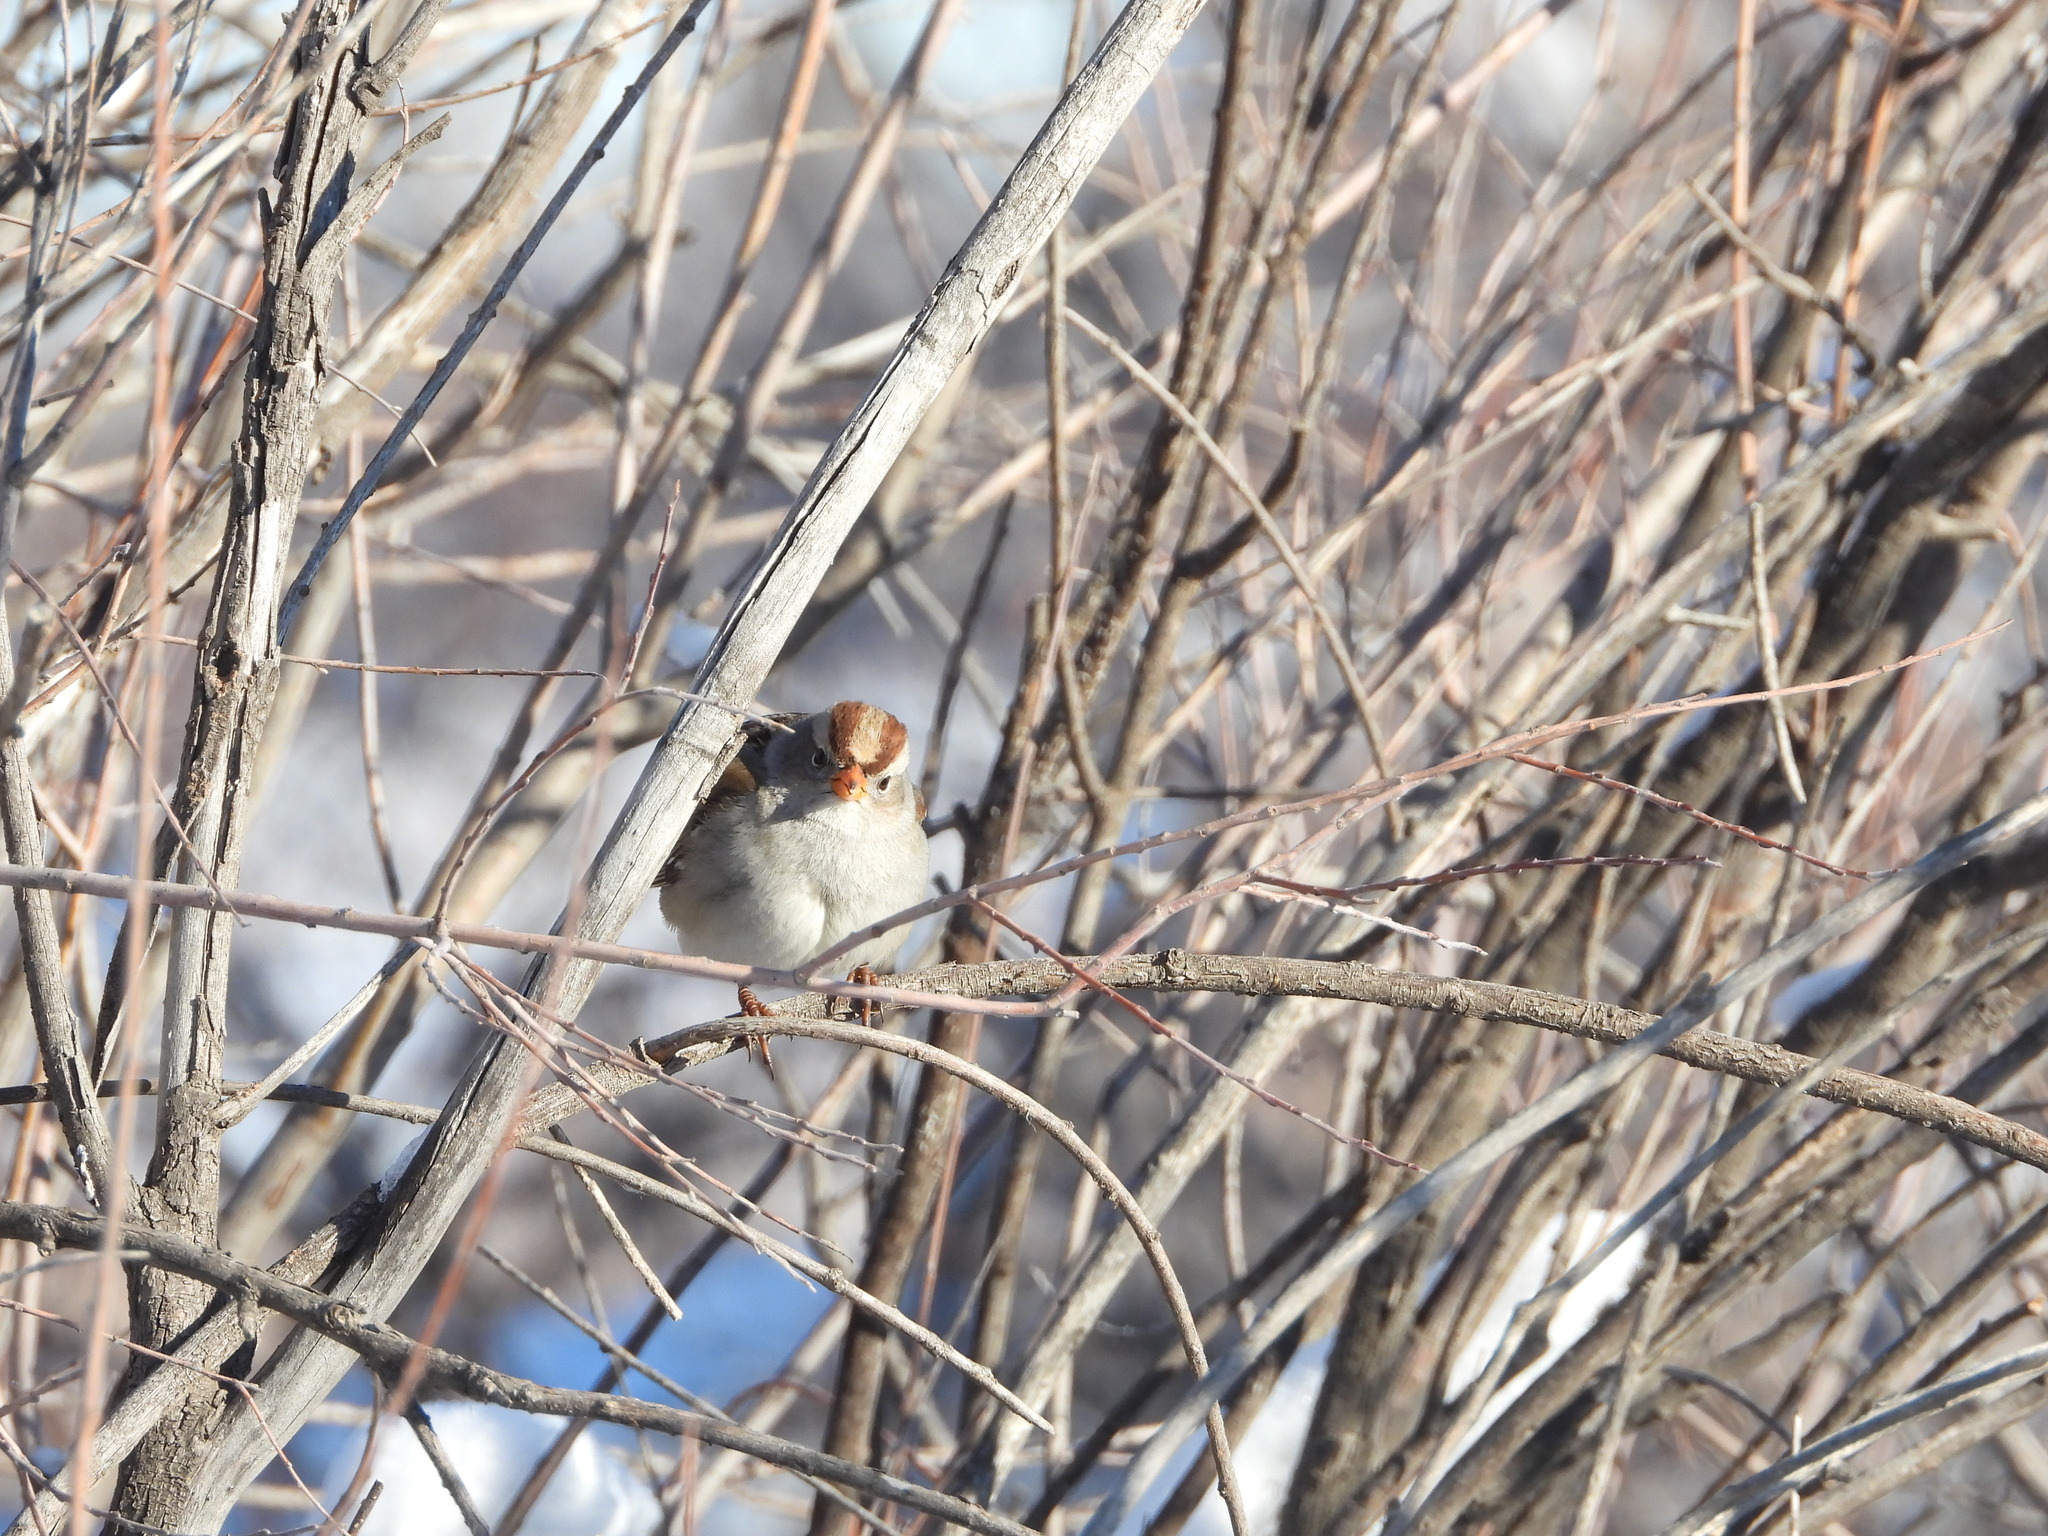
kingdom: Animalia
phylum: Chordata
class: Aves
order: Passeriformes
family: Passerellidae
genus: Zonotrichia
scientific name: Zonotrichia leucophrys
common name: White-crowned sparrow
